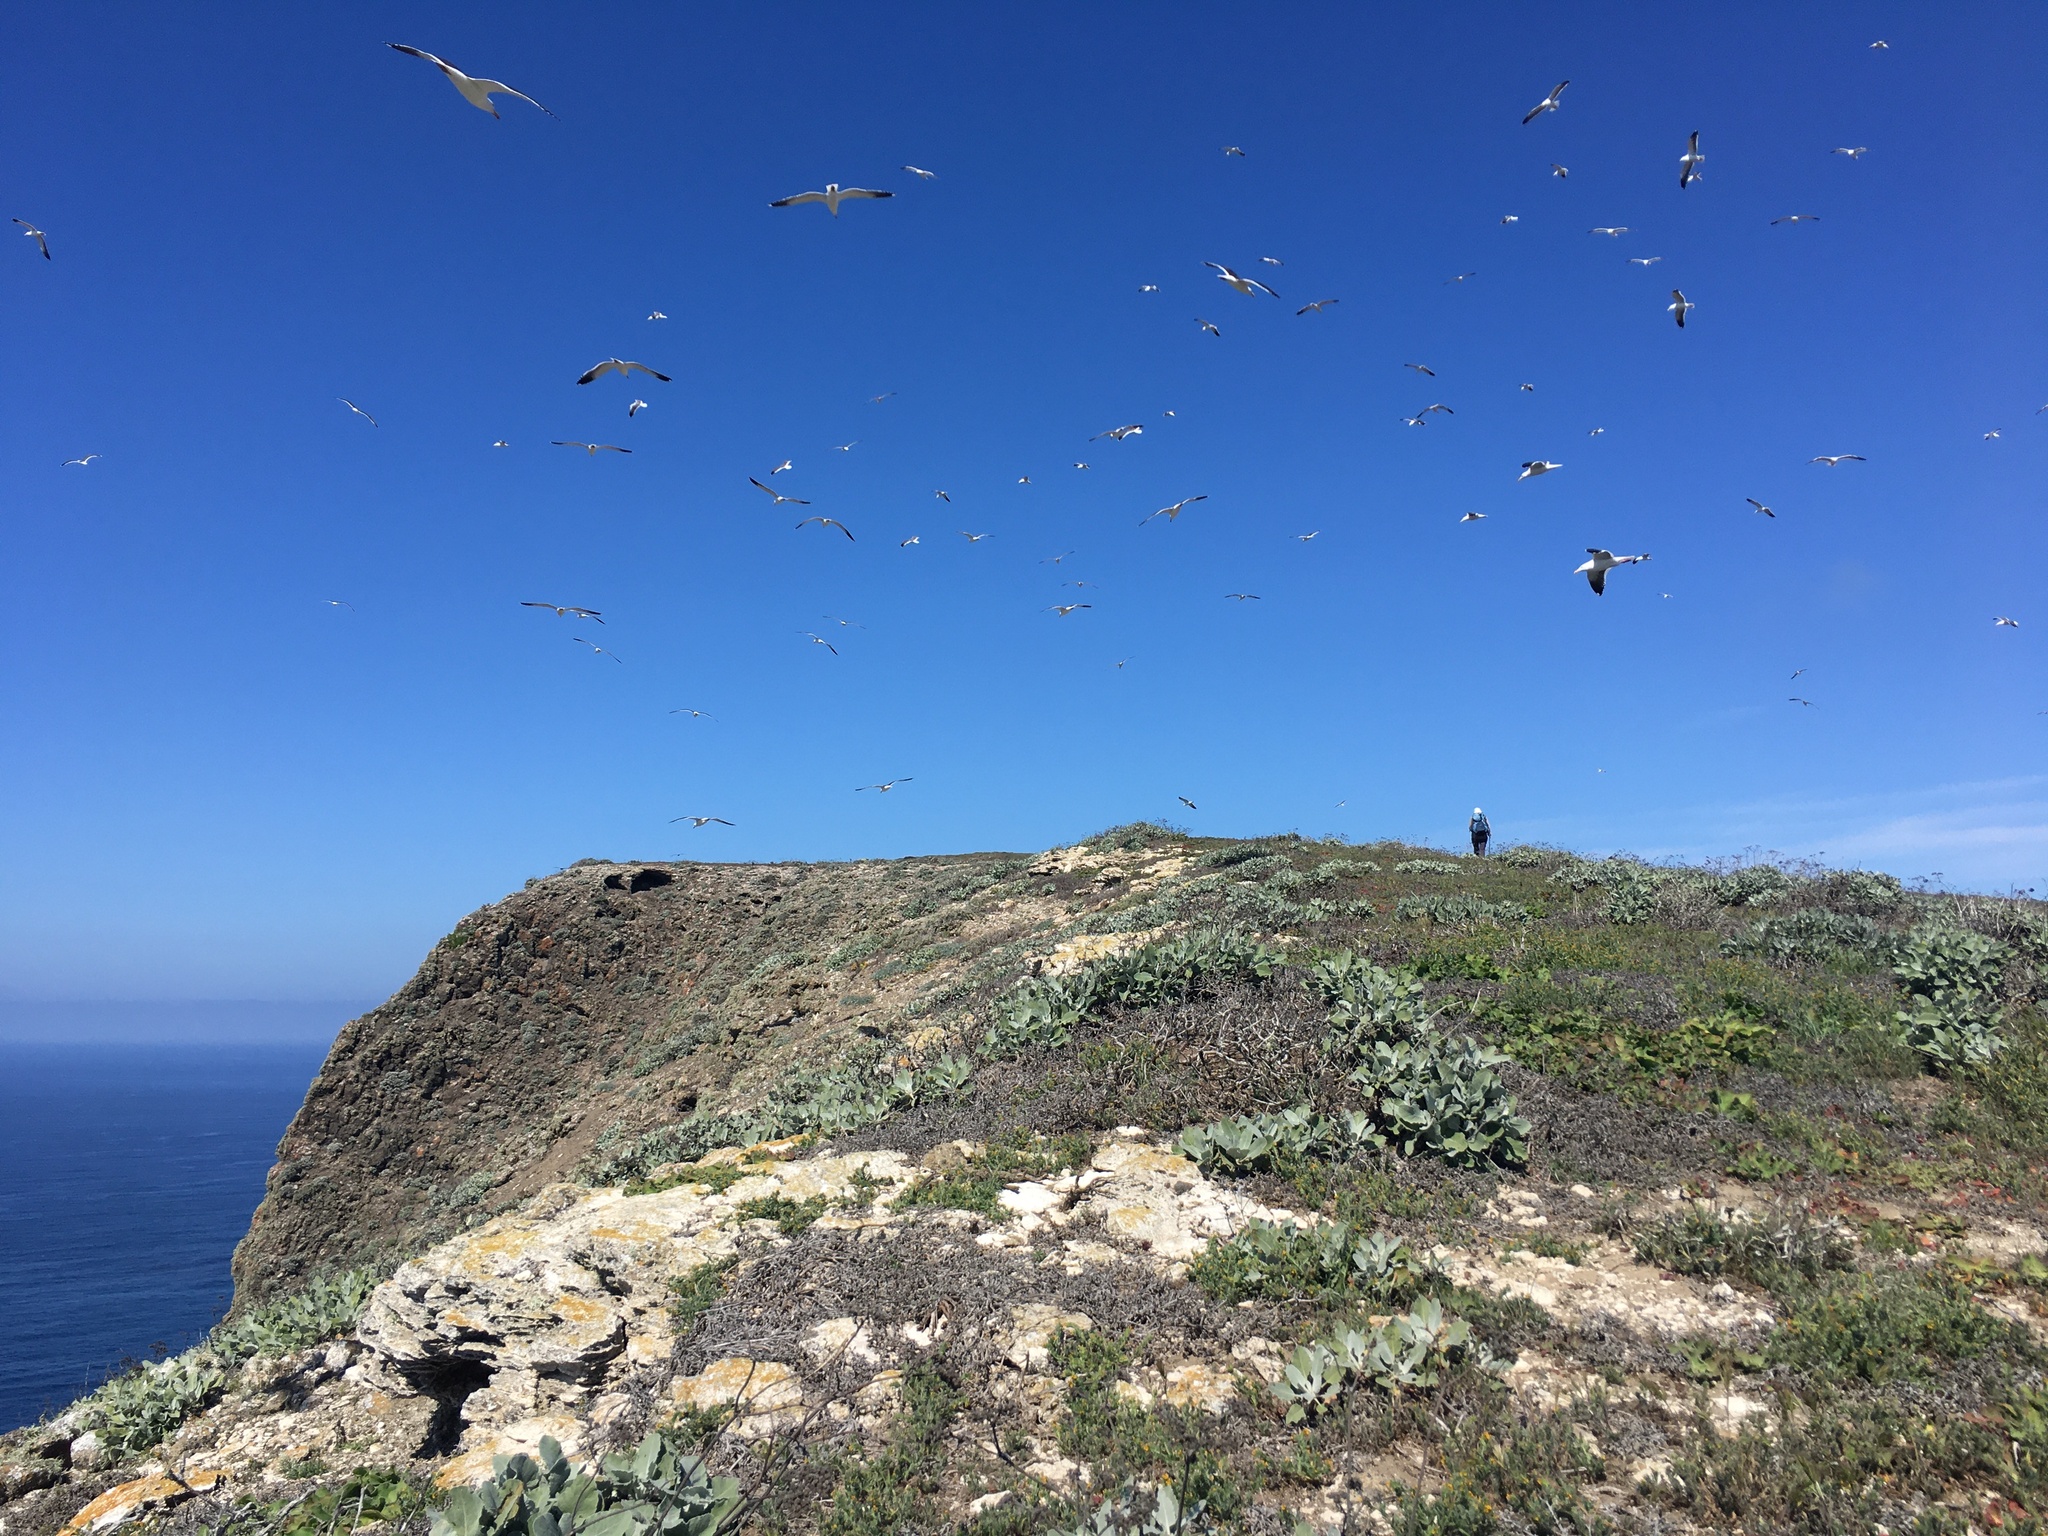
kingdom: Animalia
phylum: Chordata
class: Aves
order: Charadriiformes
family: Laridae
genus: Larus
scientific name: Larus occidentalis
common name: Western gull
